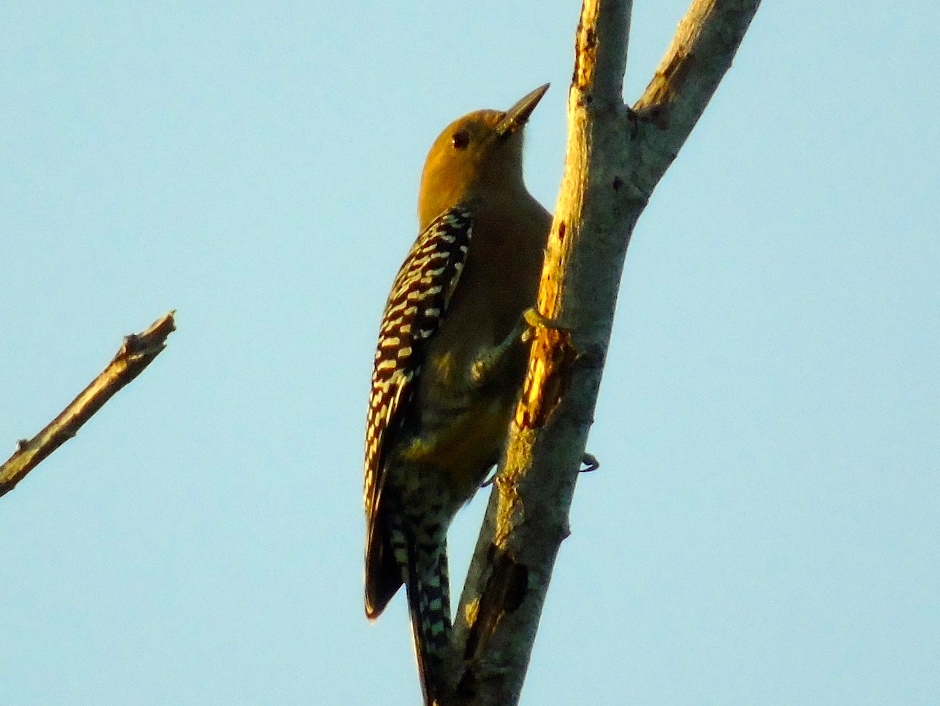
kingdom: Animalia
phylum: Chordata
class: Aves
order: Piciformes
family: Picidae
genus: Melanerpes
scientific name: Melanerpes uropygialis
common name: Gila woodpecker
